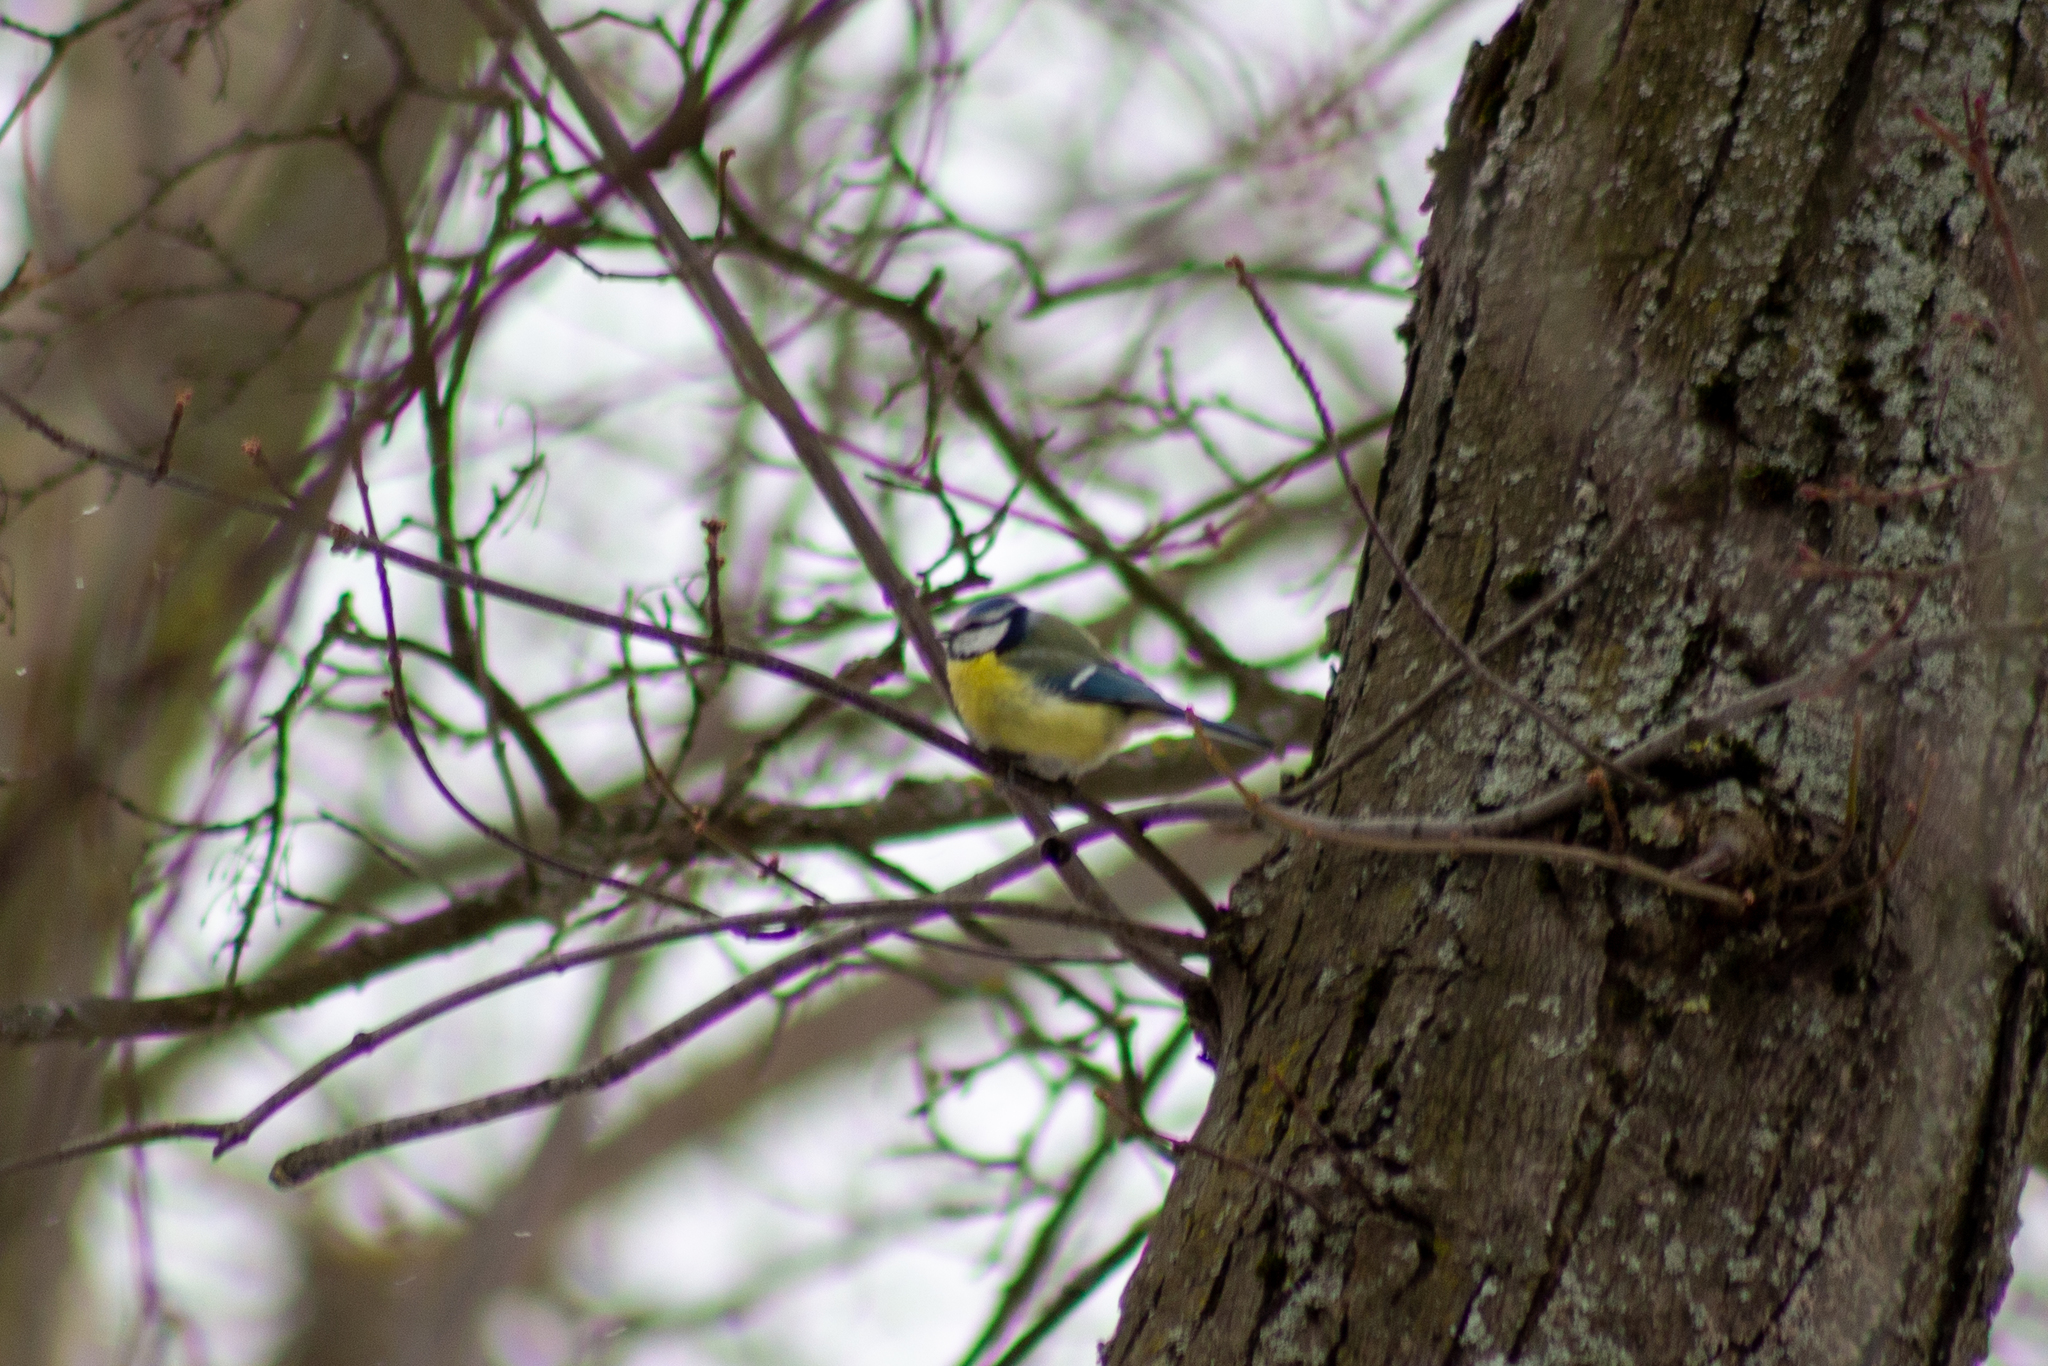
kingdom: Animalia
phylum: Chordata
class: Aves
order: Passeriformes
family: Paridae
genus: Cyanistes
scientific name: Cyanistes caeruleus
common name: Eurasian blue tit
